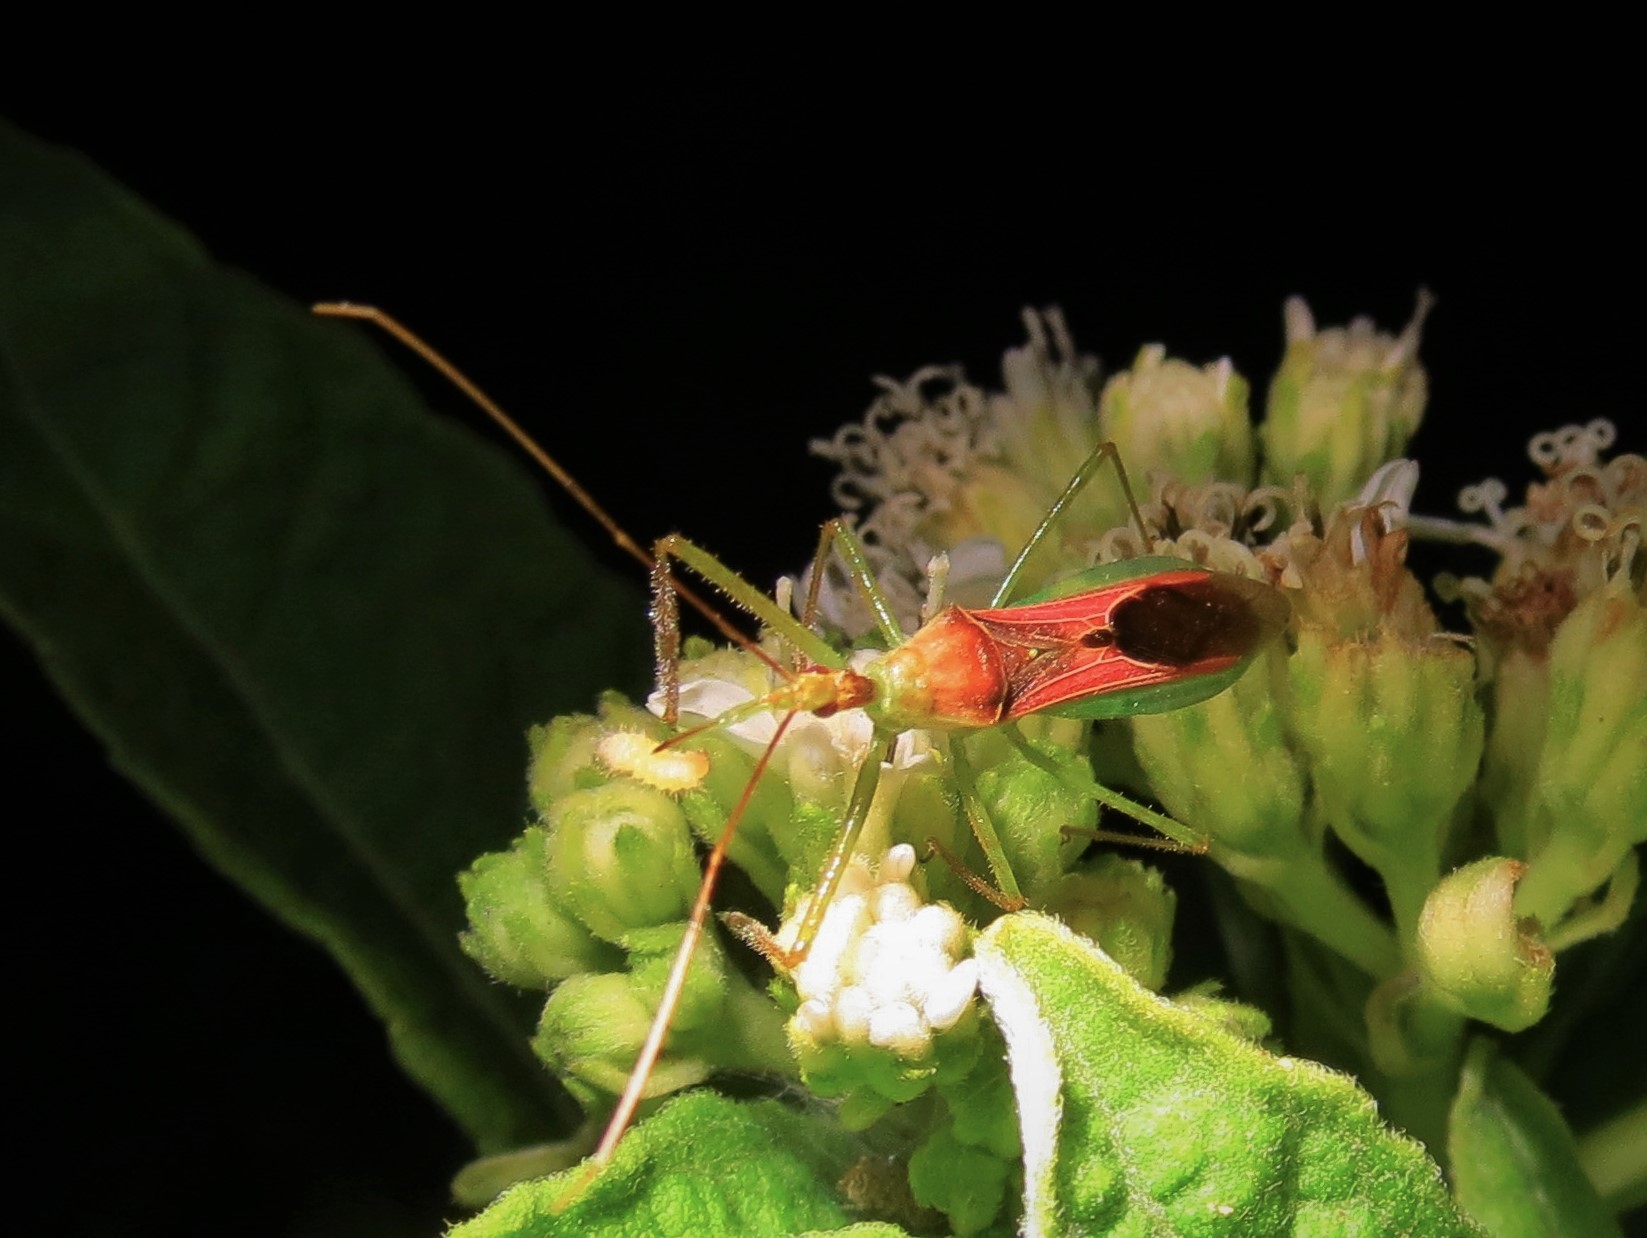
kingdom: Animalia
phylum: Arthropoda
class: Insecta
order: Hemiptera
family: Reduviidae
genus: Zelus
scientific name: Zelus renardii
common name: Assassin bug
